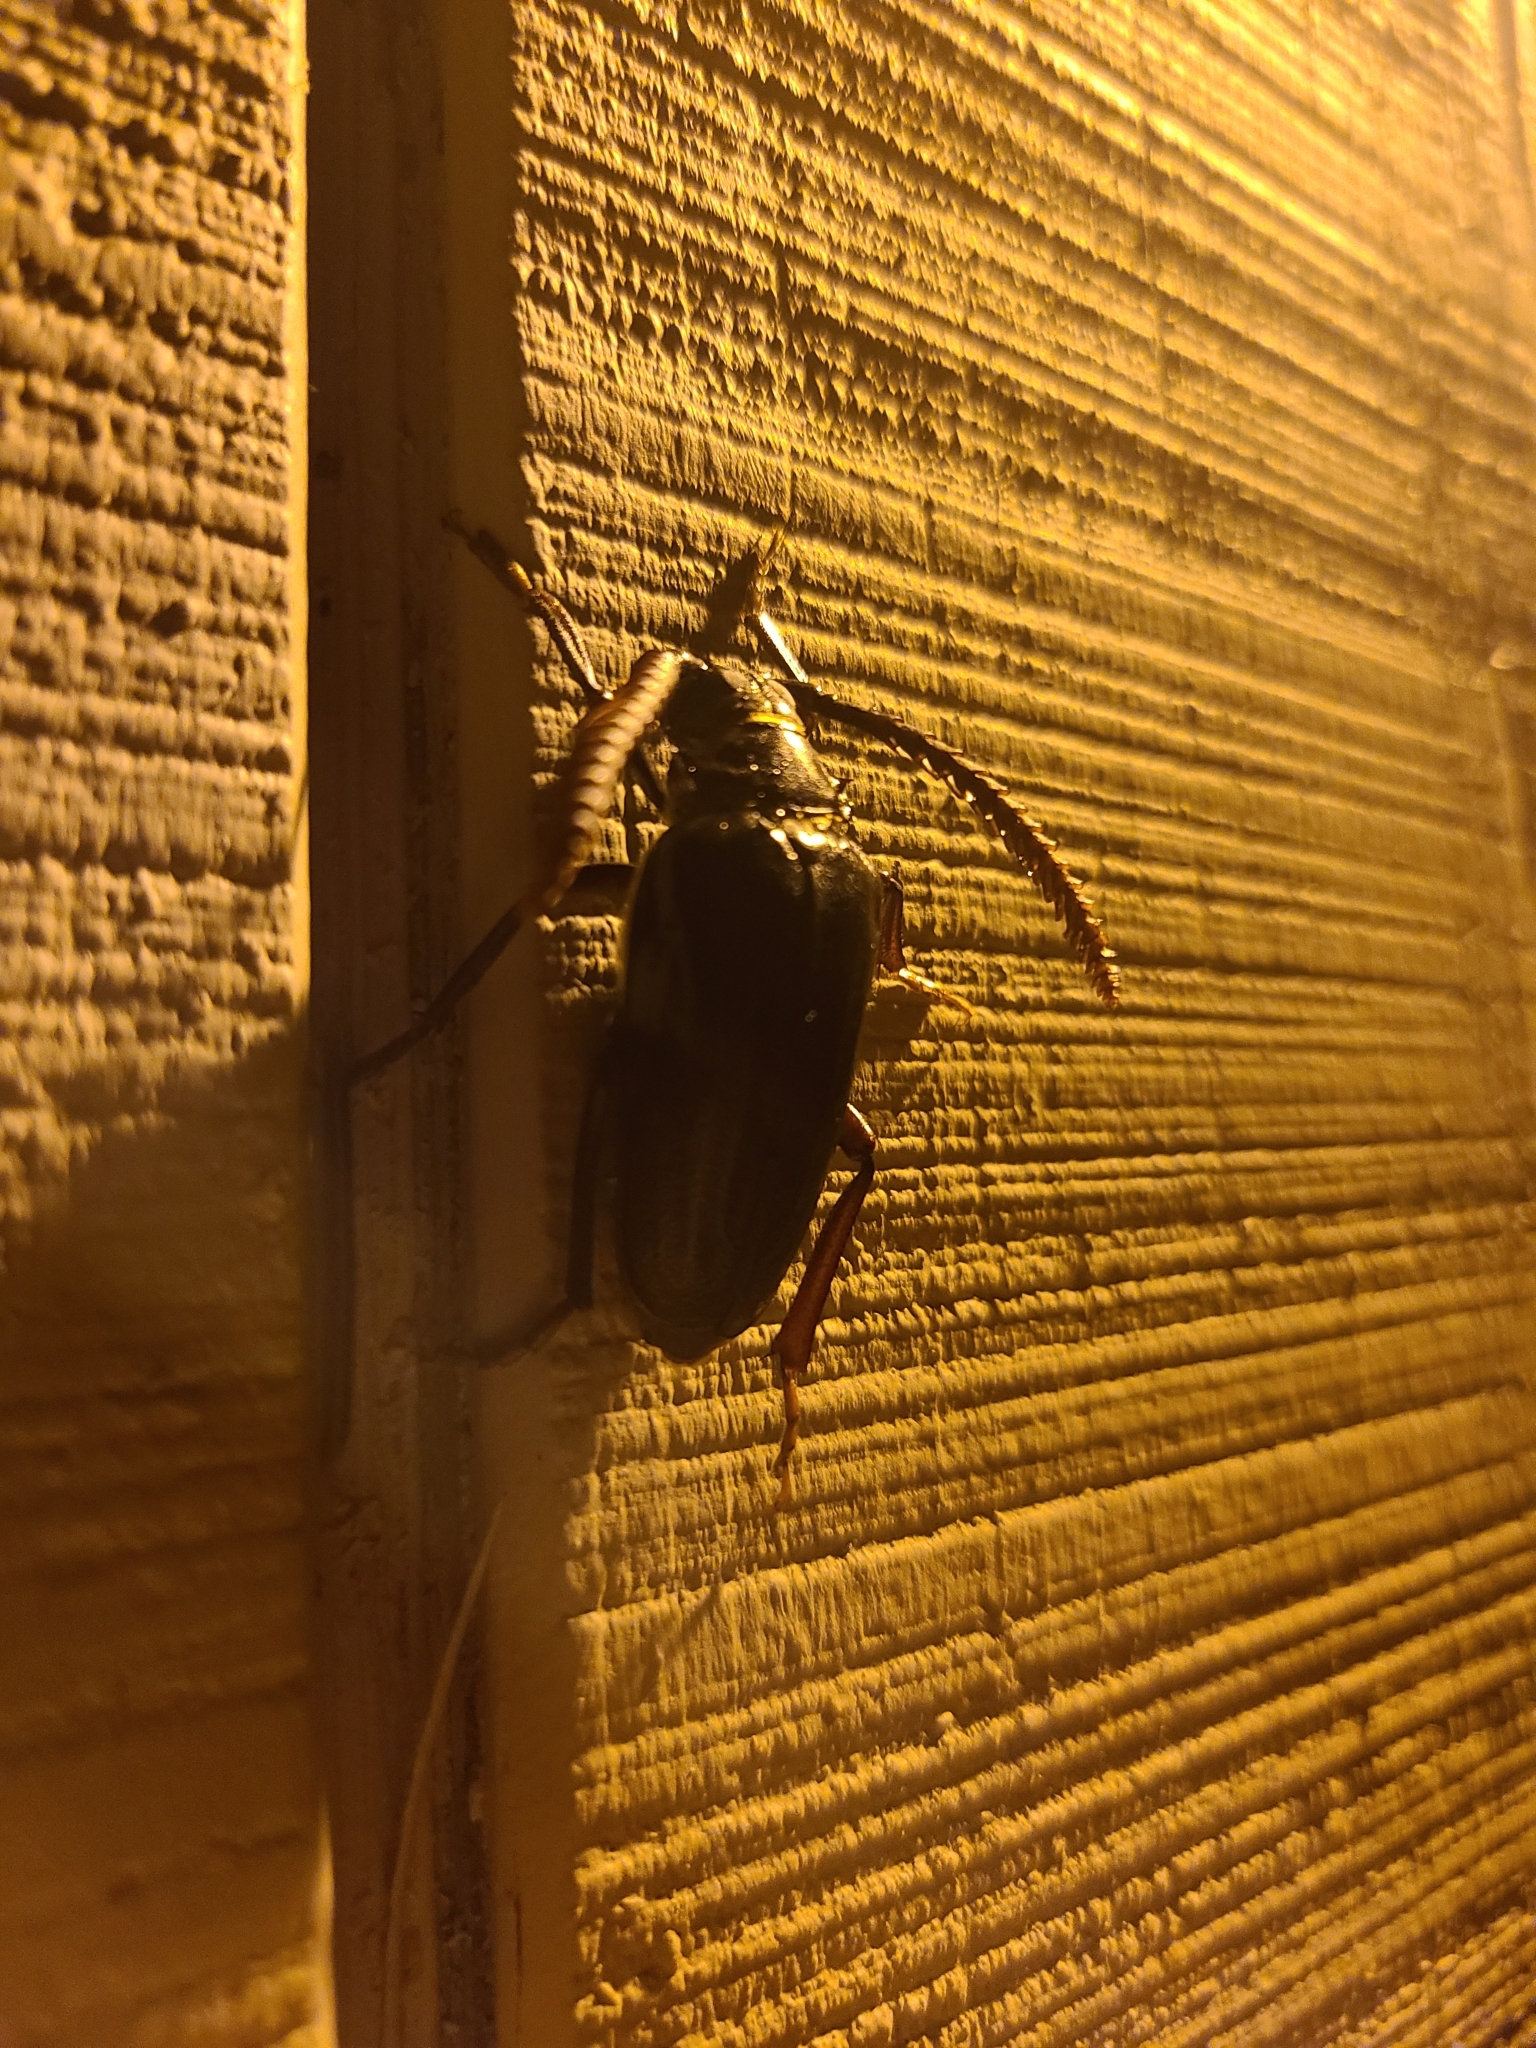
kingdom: Animalia
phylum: Arthropoda
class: Insecta
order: Coleoptera
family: Cerambycidae
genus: Prionus
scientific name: Prionus imbricornis
